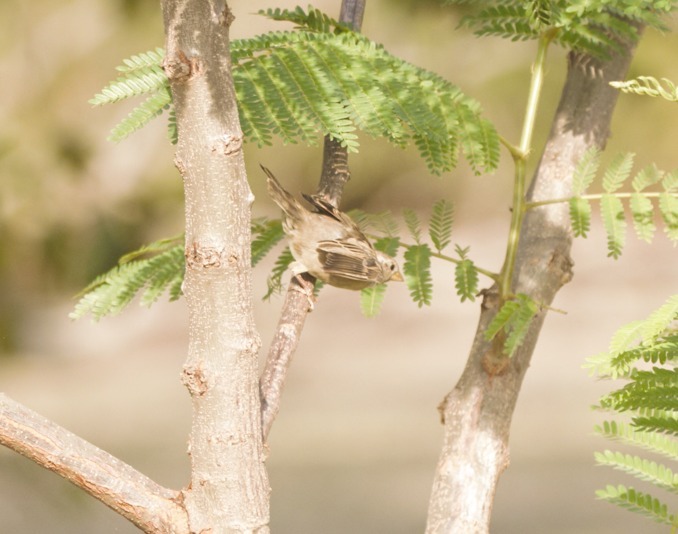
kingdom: Animalia
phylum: Chordata
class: Aves
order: Passeriformes
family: Passeridae
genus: Passer
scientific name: Passer domesticus
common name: House sparrow
